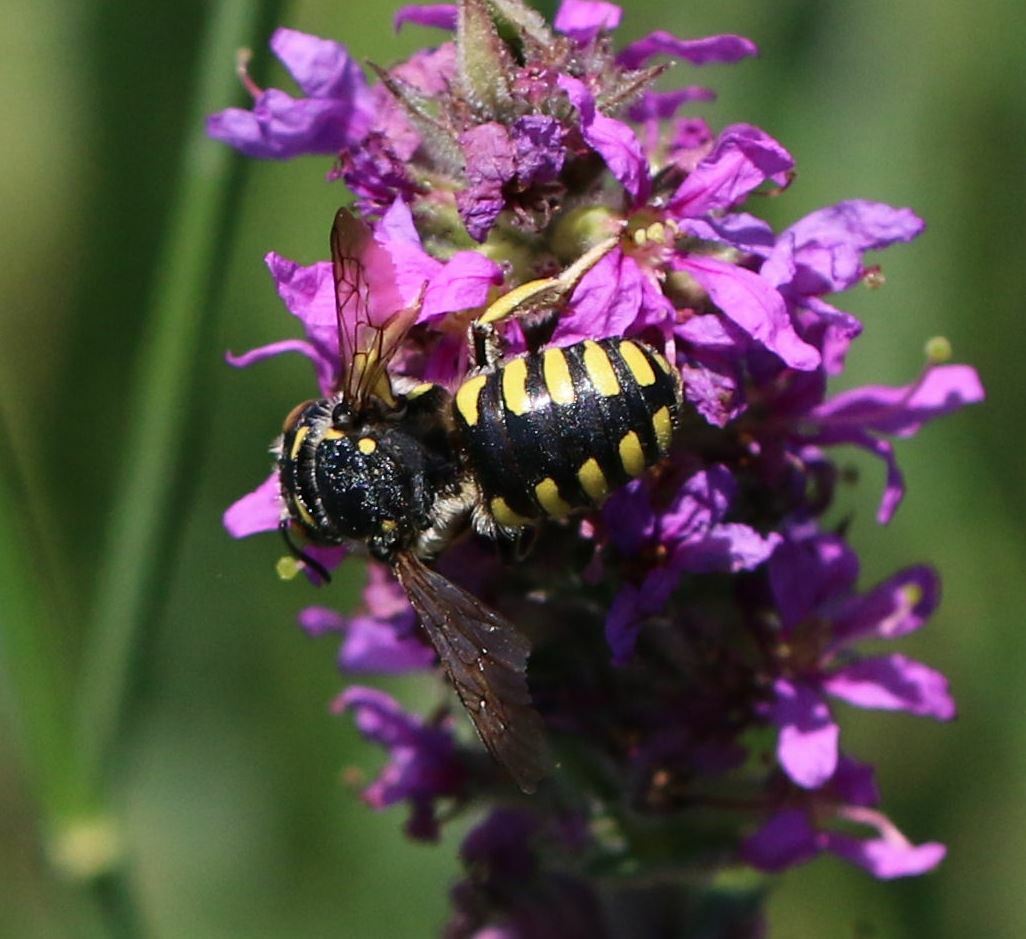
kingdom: Animalia
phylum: Arthropoda
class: Insecta
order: Hymenoptera
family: Megachilidae
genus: Anthidium
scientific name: Anthidium florentinum
